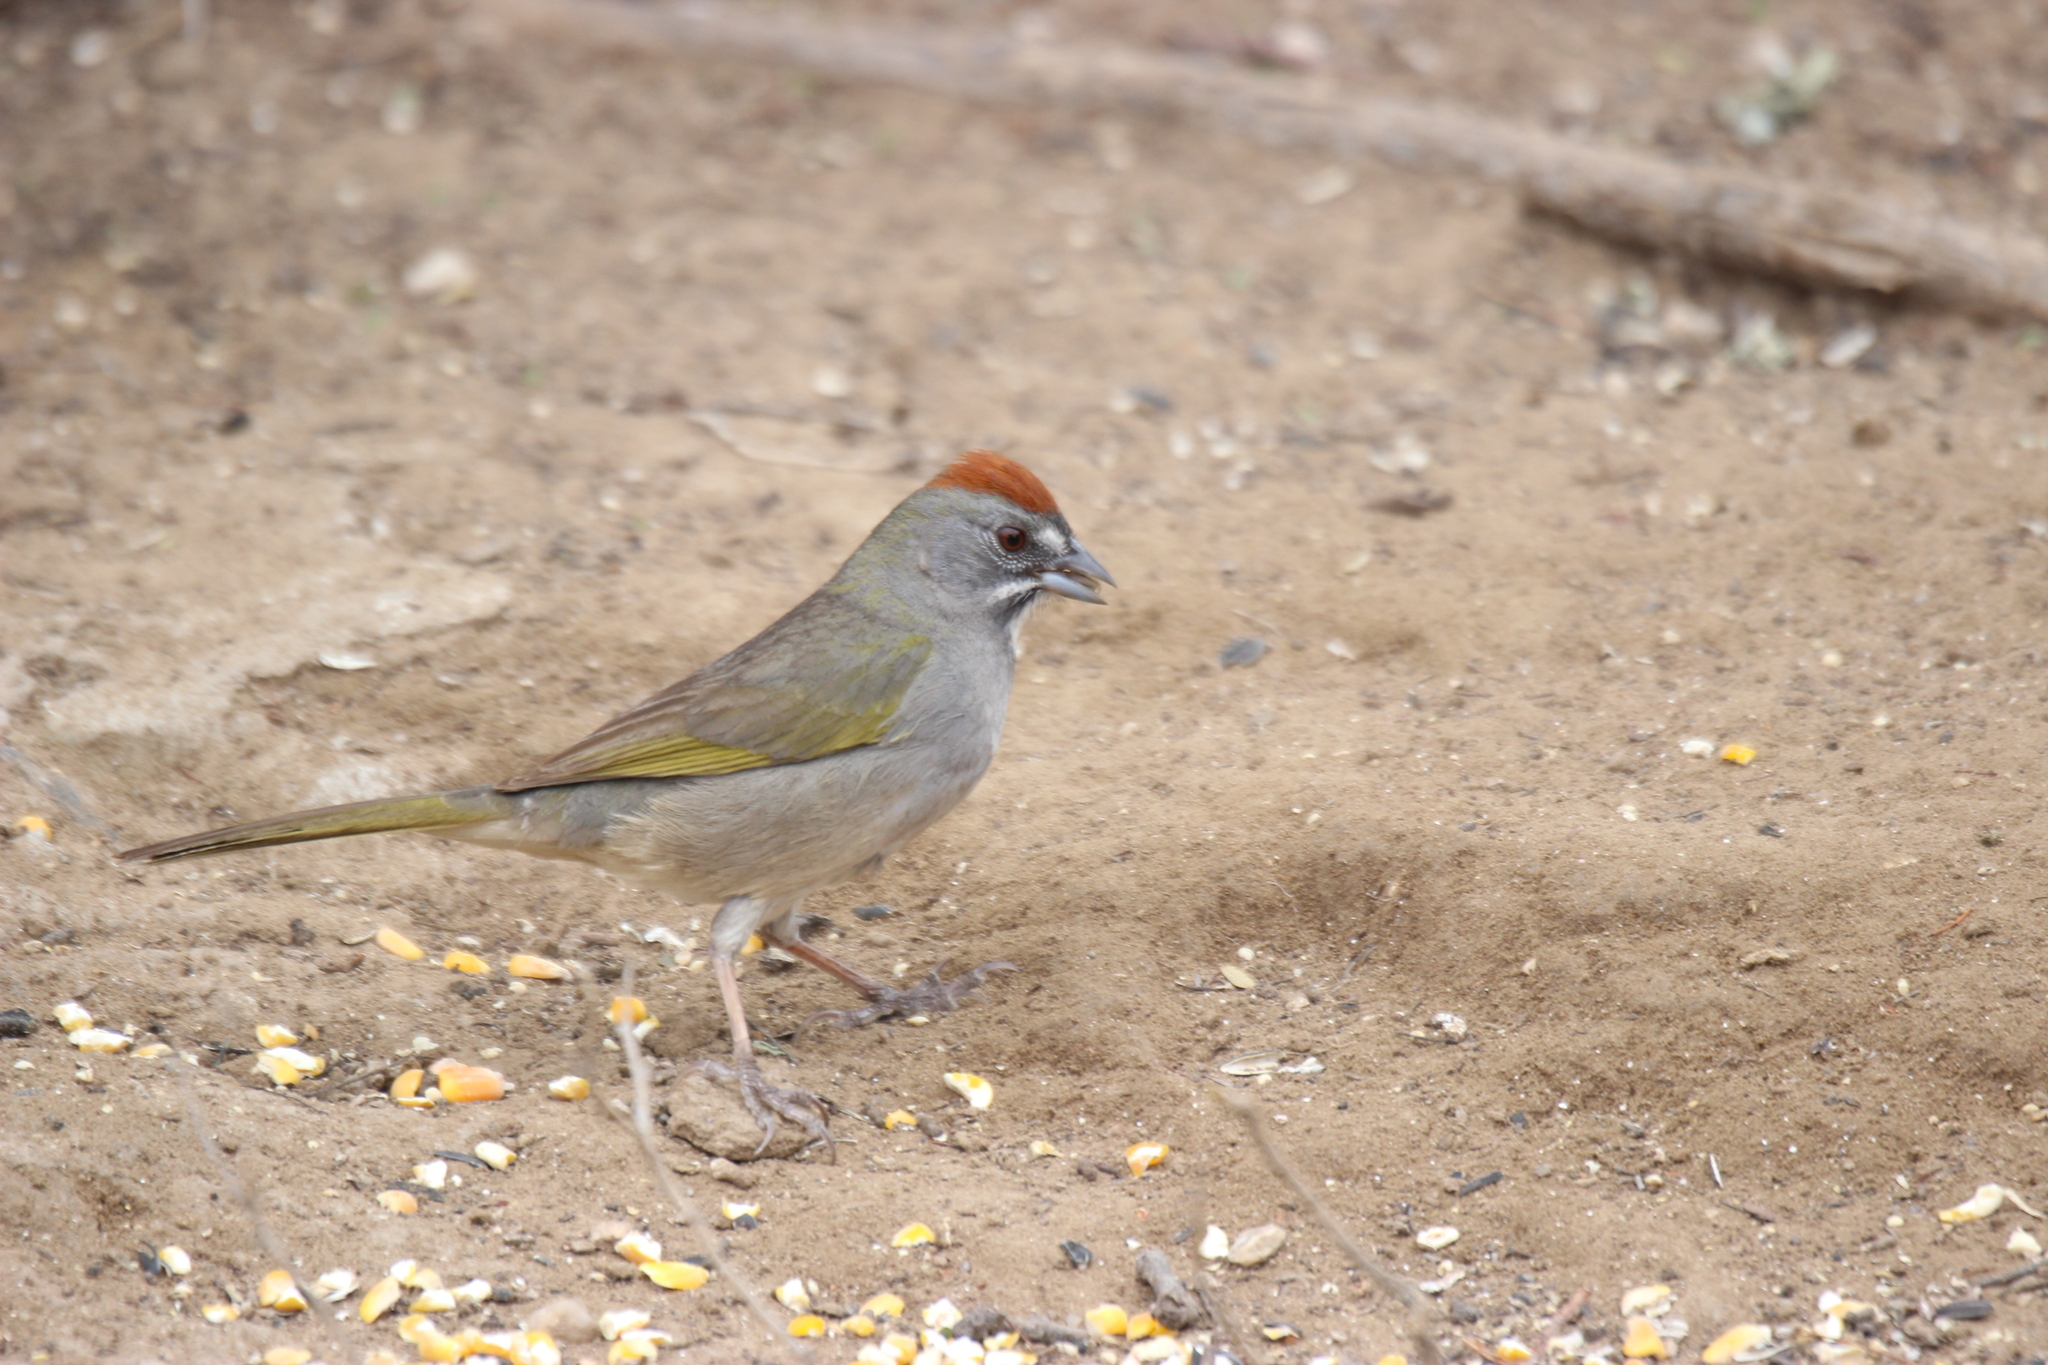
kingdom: Animalia
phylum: Chordata
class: Aves
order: Passeriformes
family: Passerellidae
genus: Pipilo
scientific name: Pipilo chlorurus
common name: Green-tailed towhee
